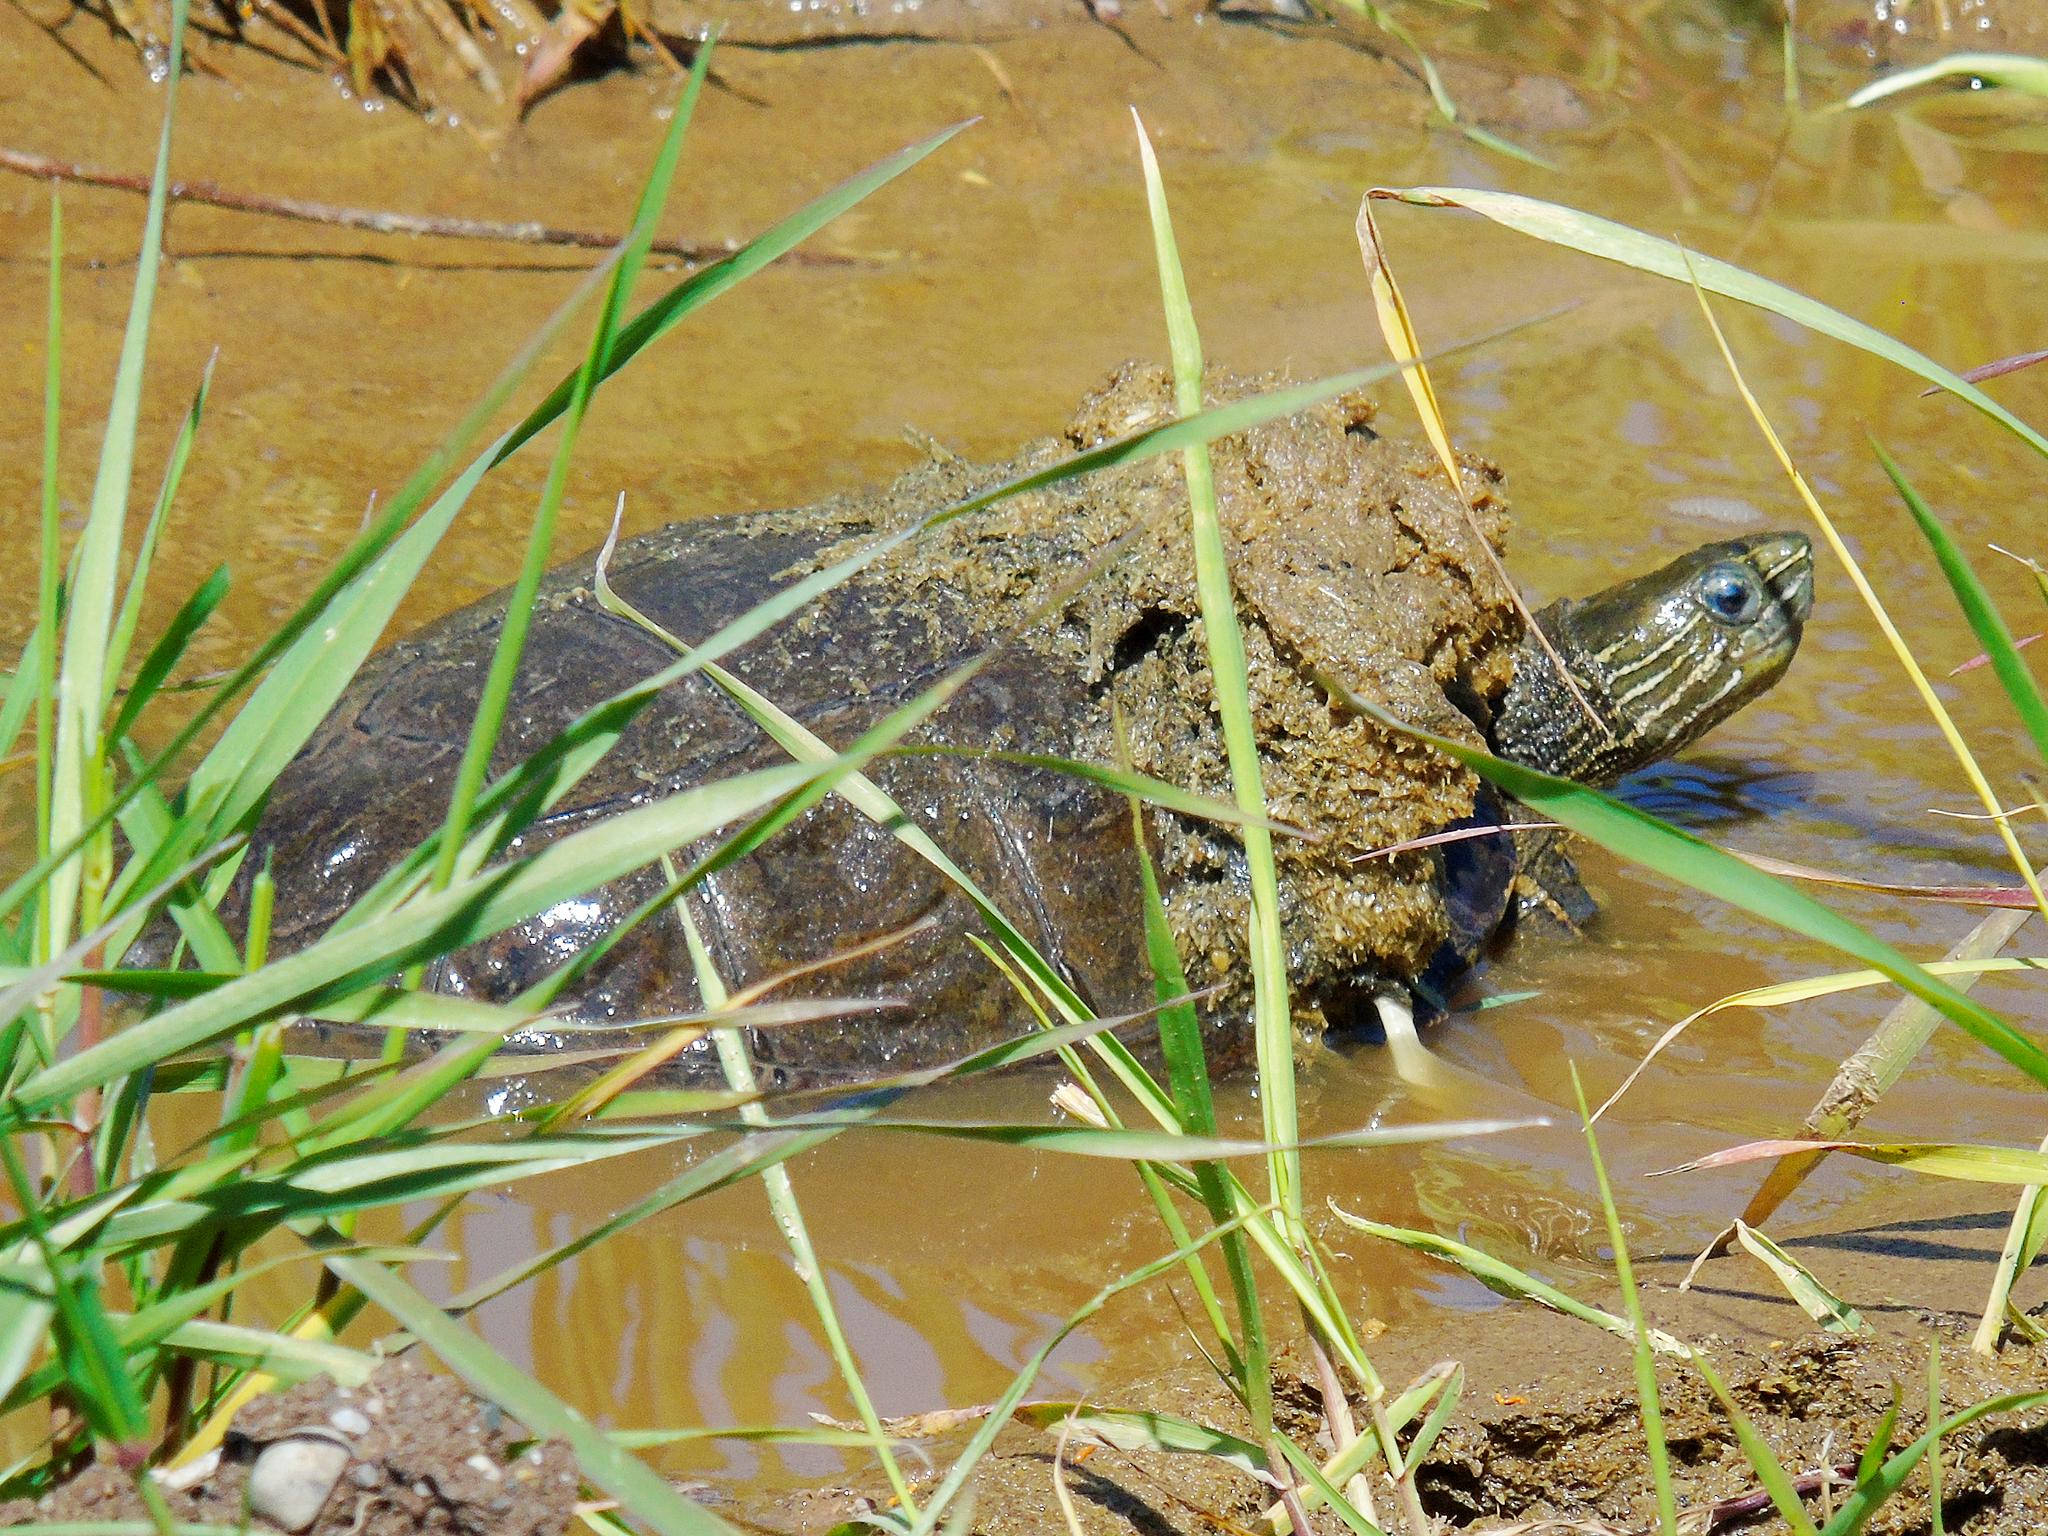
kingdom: Animalia
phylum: Chordata
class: Testudines
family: Geoemydidae
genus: Mauremys
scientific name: Mauremys caspica
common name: Caspian turtle
